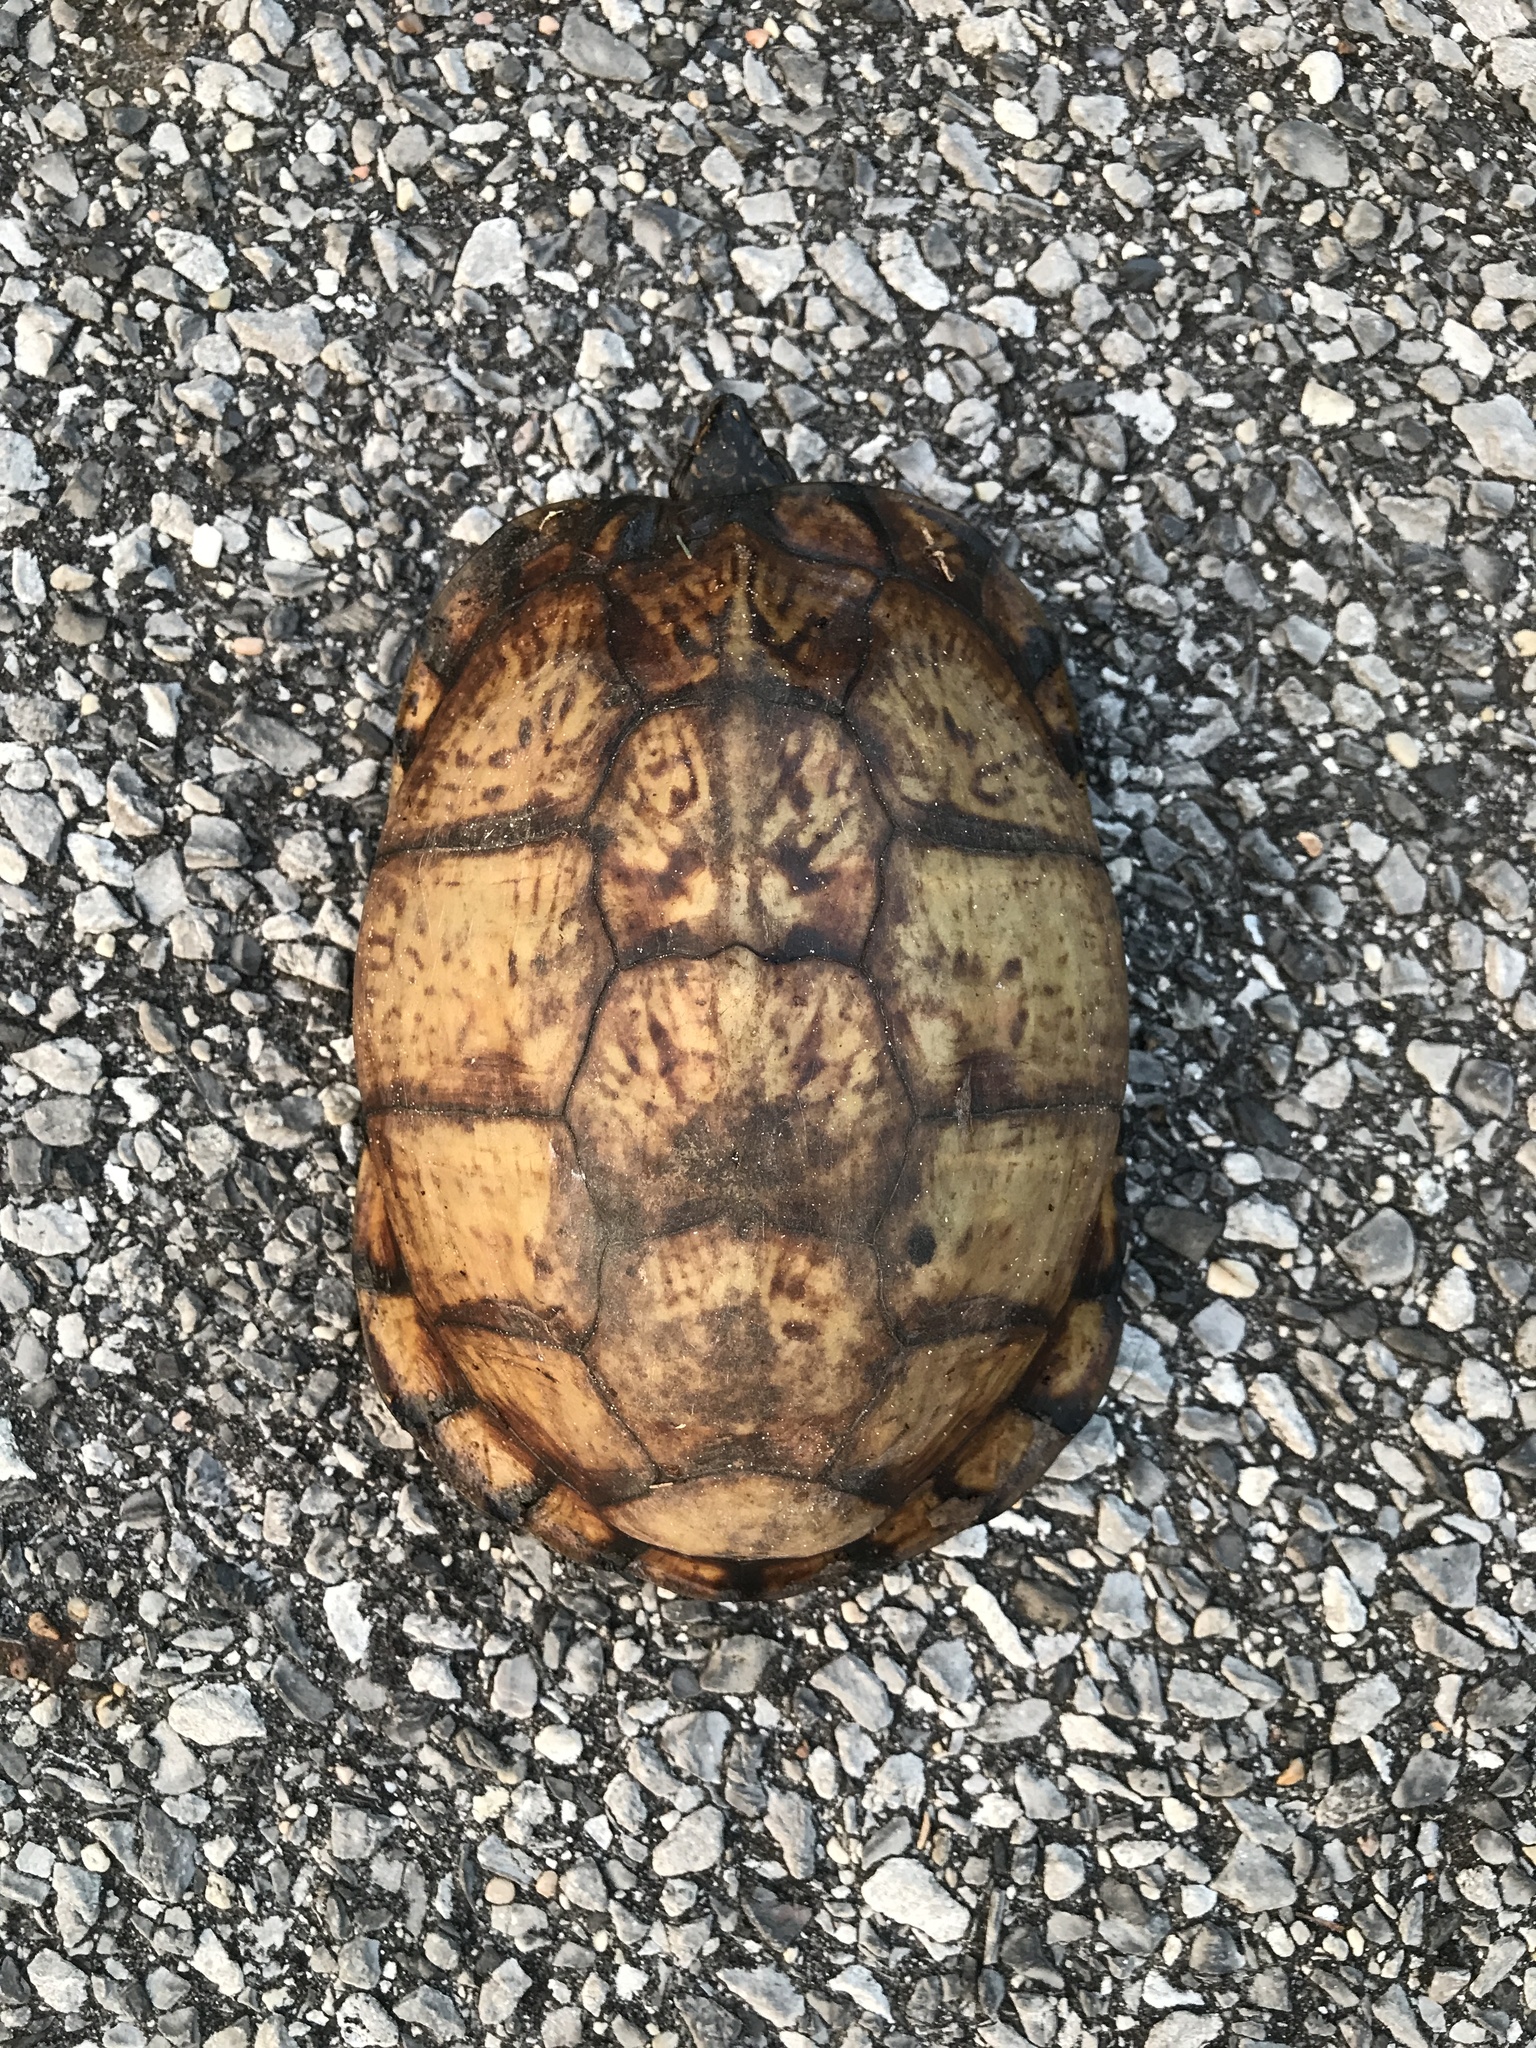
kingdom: Animalia
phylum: Chordata
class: Testudines
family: Emydidae
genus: Terrapene
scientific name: Terrapene carolina
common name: Common box turtle
